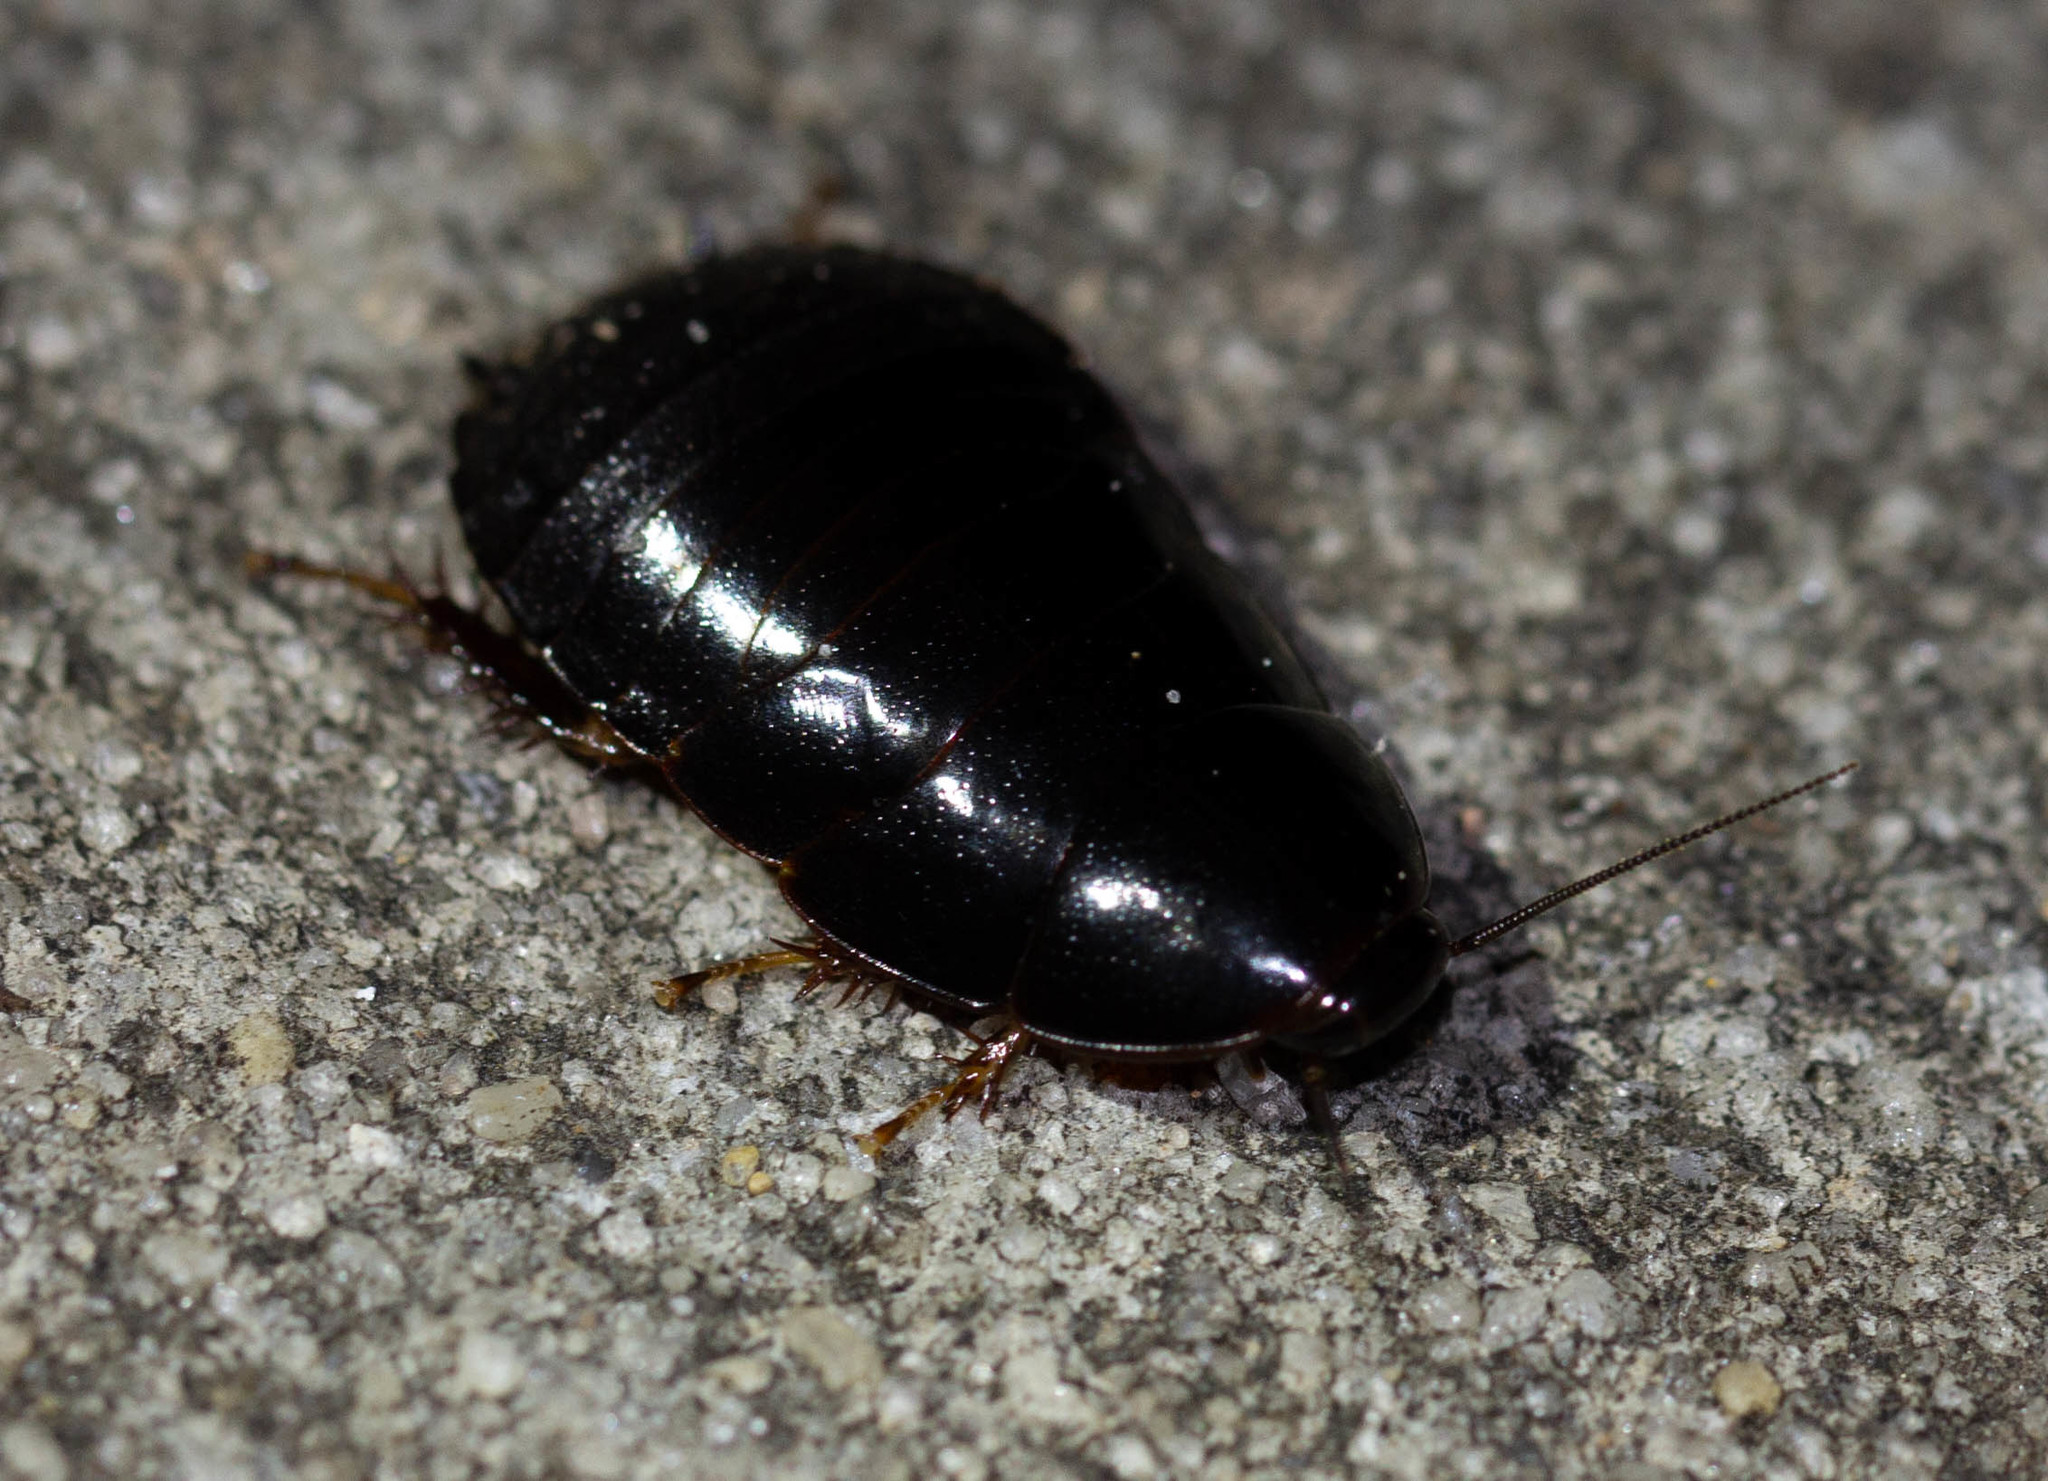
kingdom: Animalia
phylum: Arthropoda
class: Insecta
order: Blattodea
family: Blaberidae
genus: Pycnoscelus
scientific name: Pycnoscelus surinamensis
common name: Surinam cockroach
